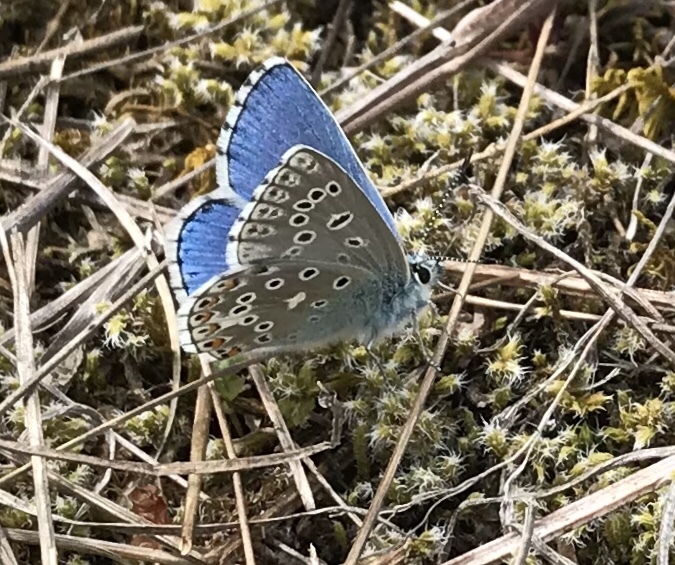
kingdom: Animalia
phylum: Arthropoda
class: Insecta
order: Lepidoptera
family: Lycaenidae
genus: Lysandra
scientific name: Lysandra bellargus
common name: Adonis blue
